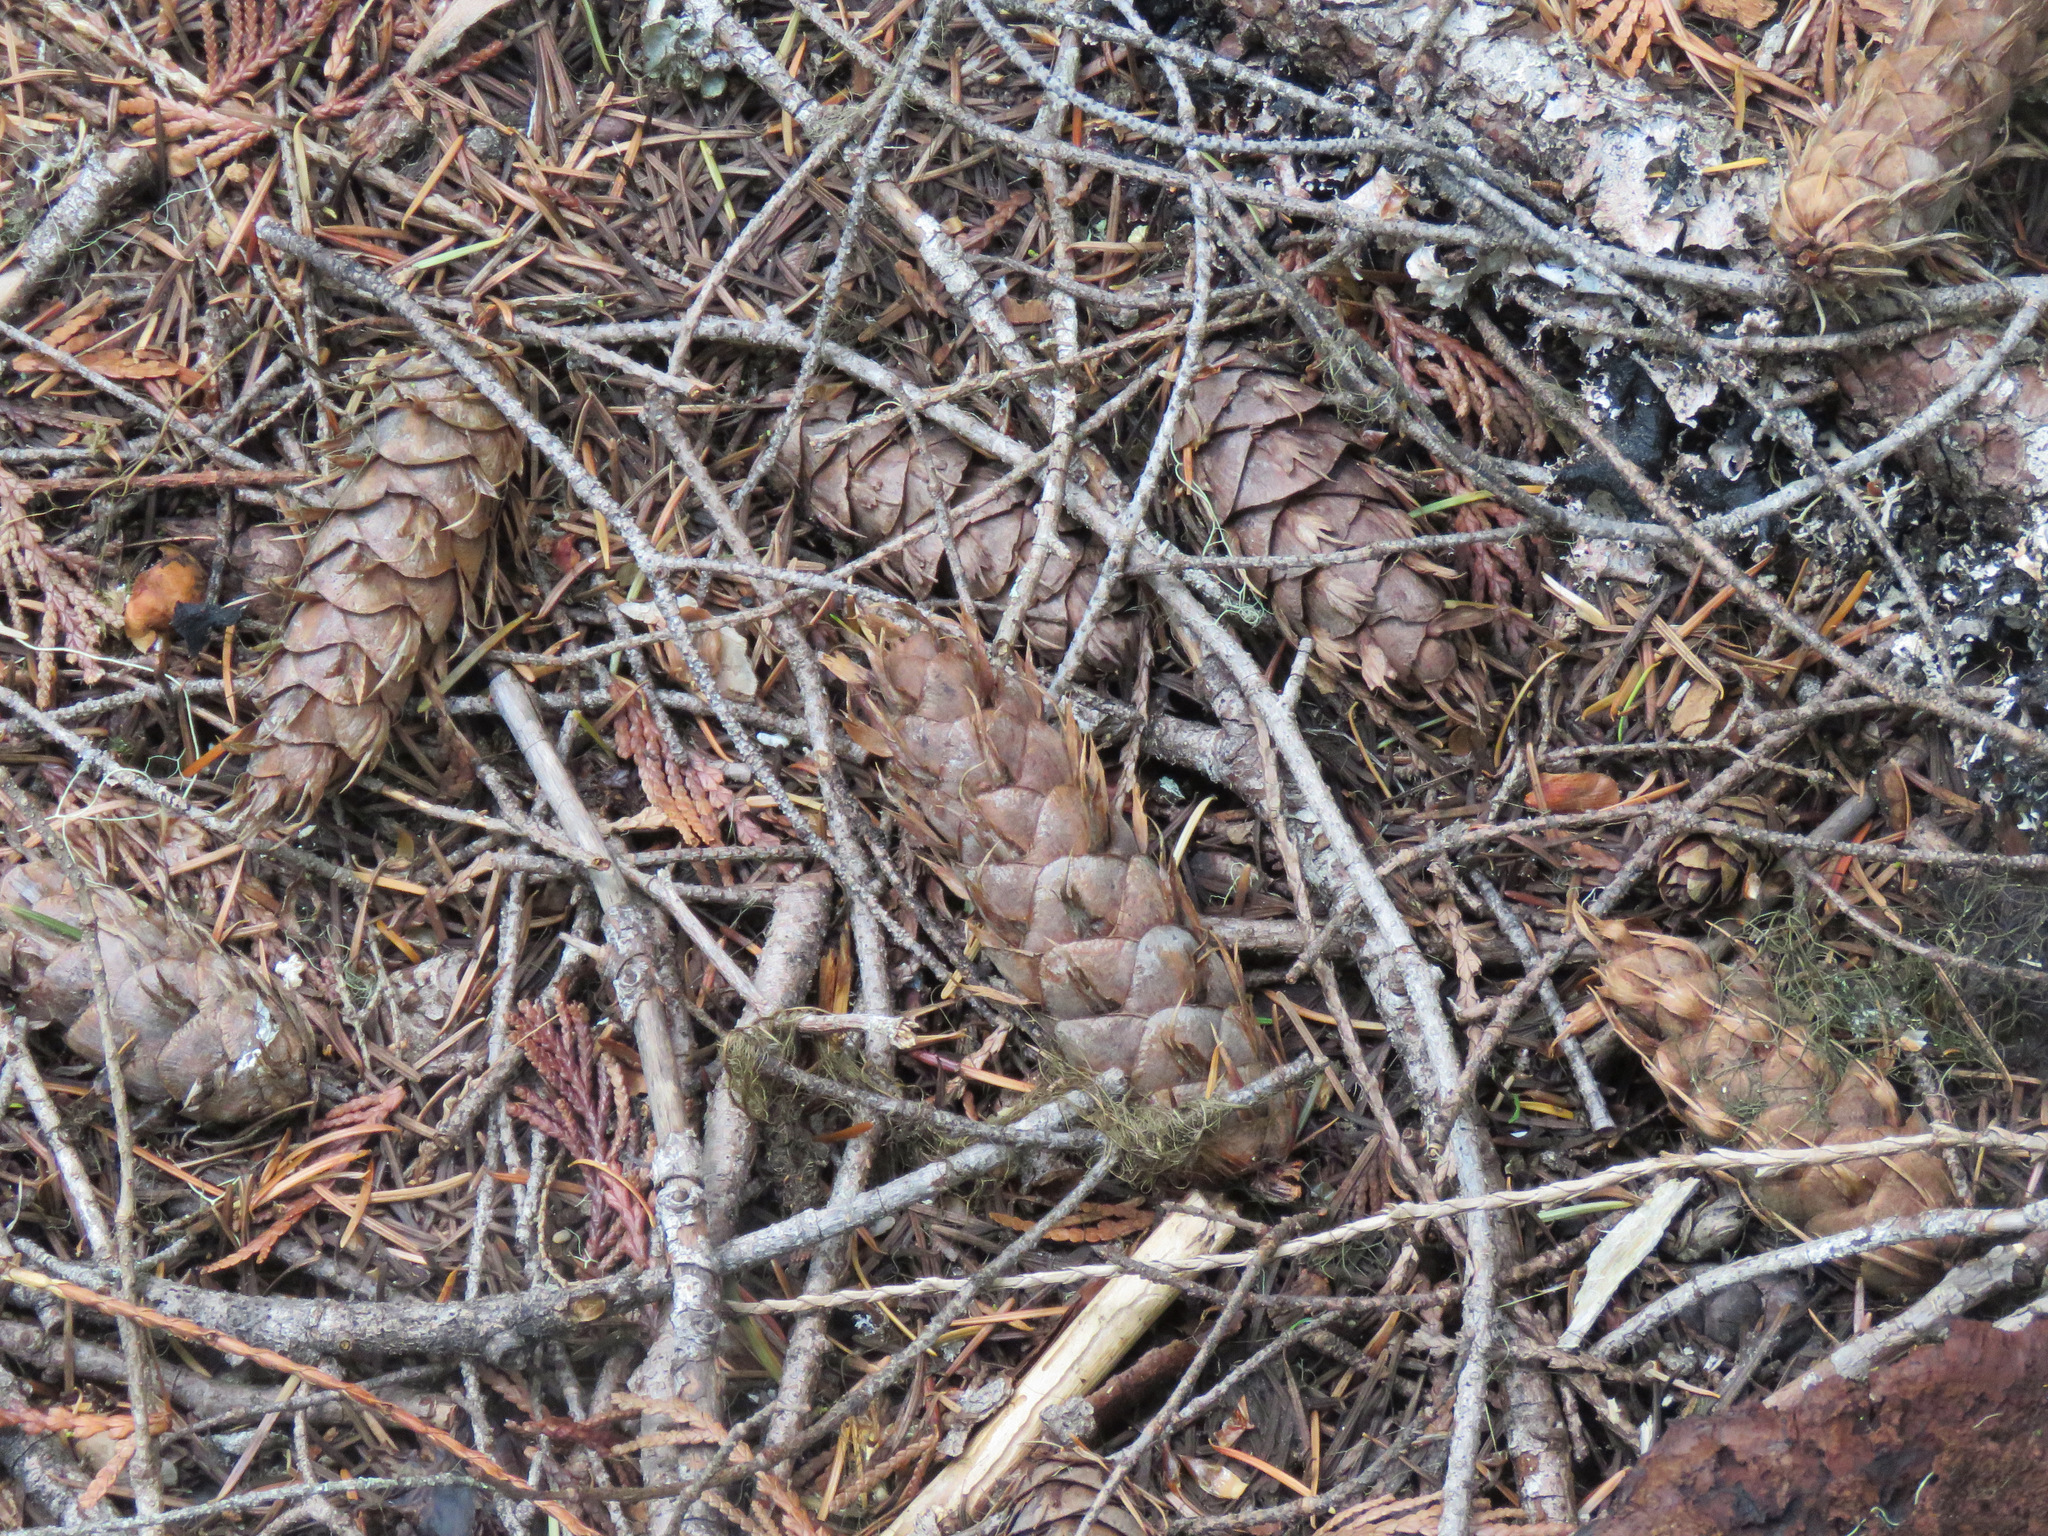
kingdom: Plantae
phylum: Tracheophyta
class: Pinopsida
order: Pinales
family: Pinaceae
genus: Pseudotsuga
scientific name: Pseudotsuga menziesii
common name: Douglas fir
